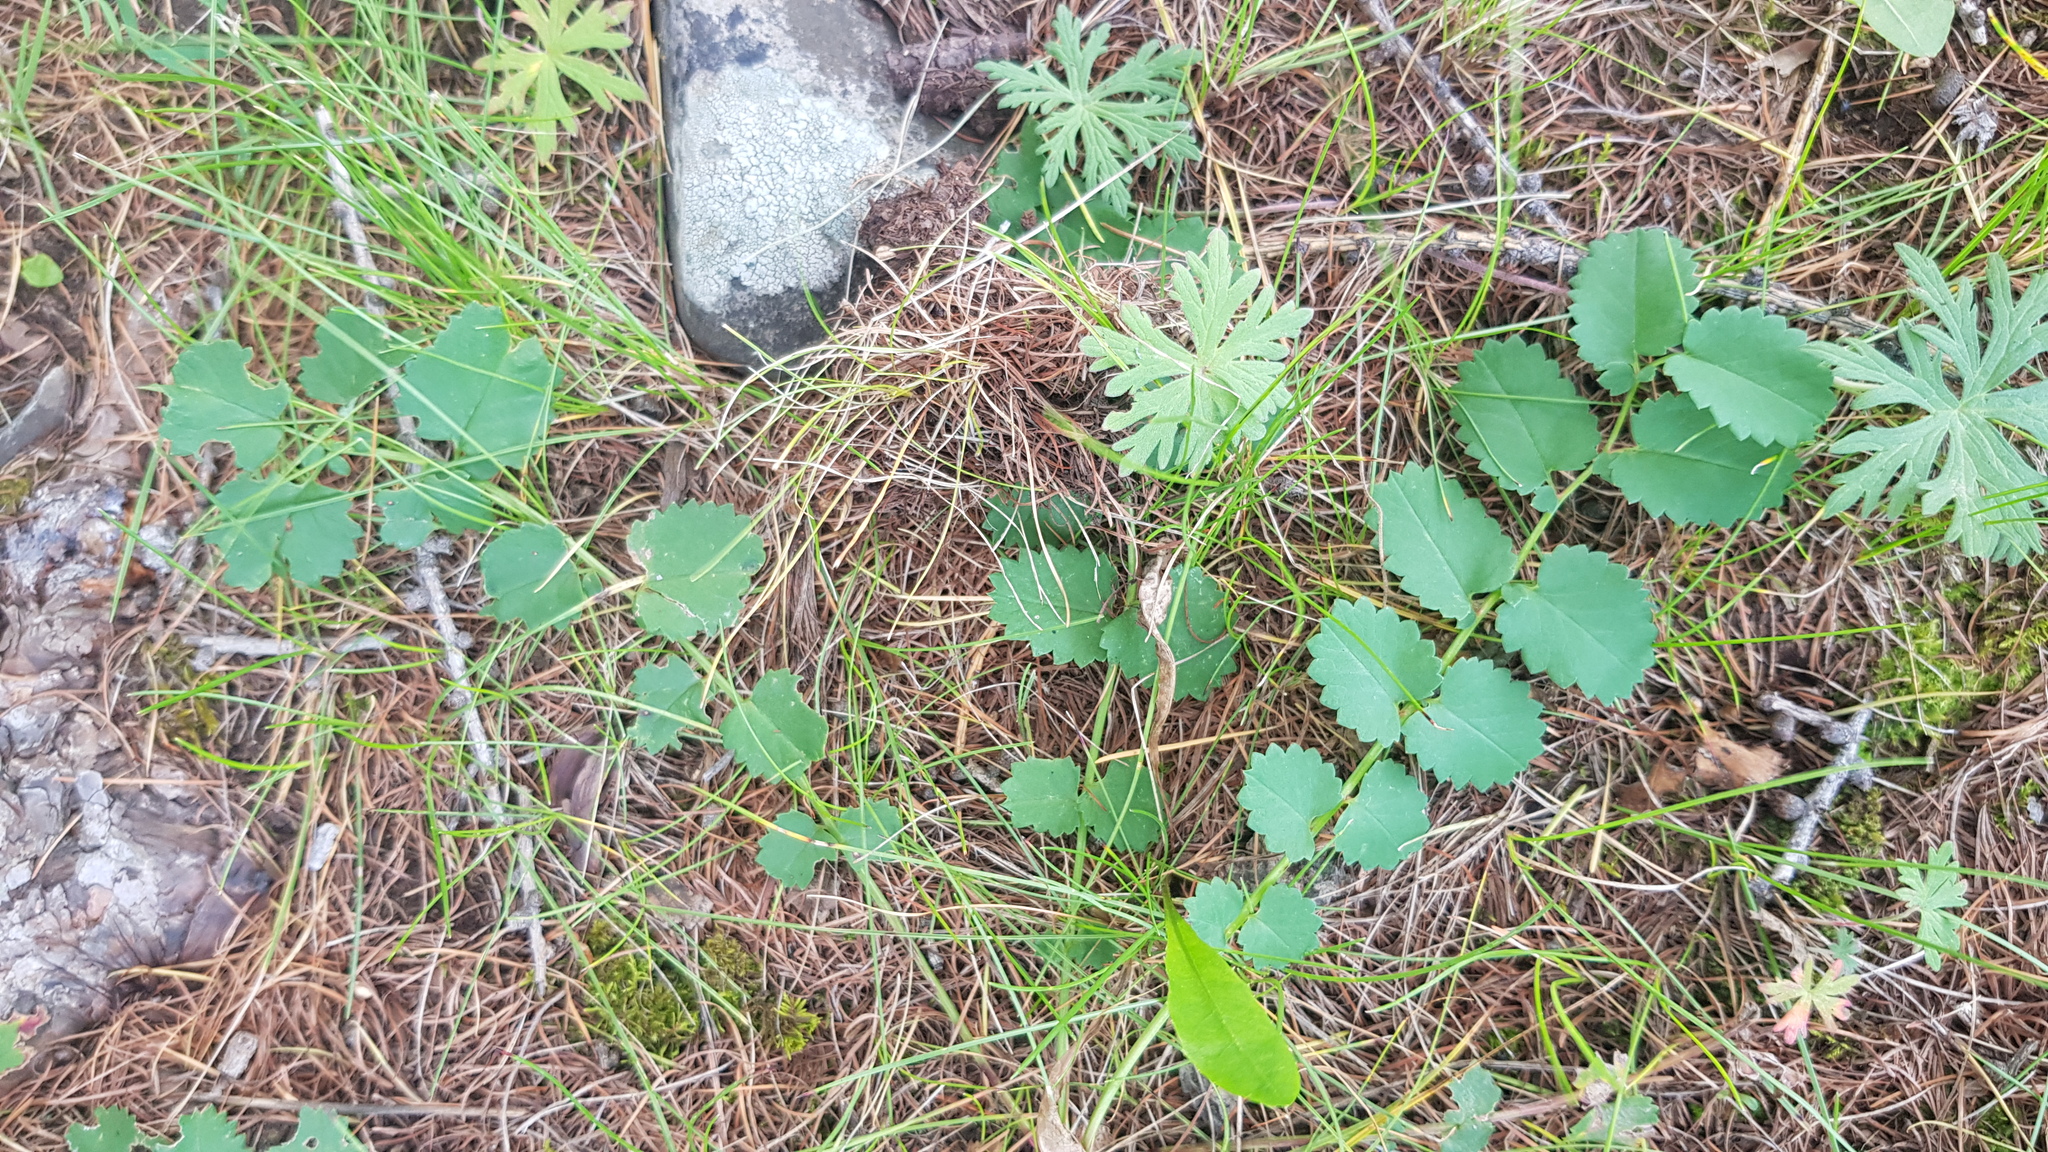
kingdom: Plantae
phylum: Tracheophyta
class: Magnoliopsida
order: Rosales
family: Rosaceae
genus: Sanguisorba
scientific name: Sanguisorba officinalis
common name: Great burnet
